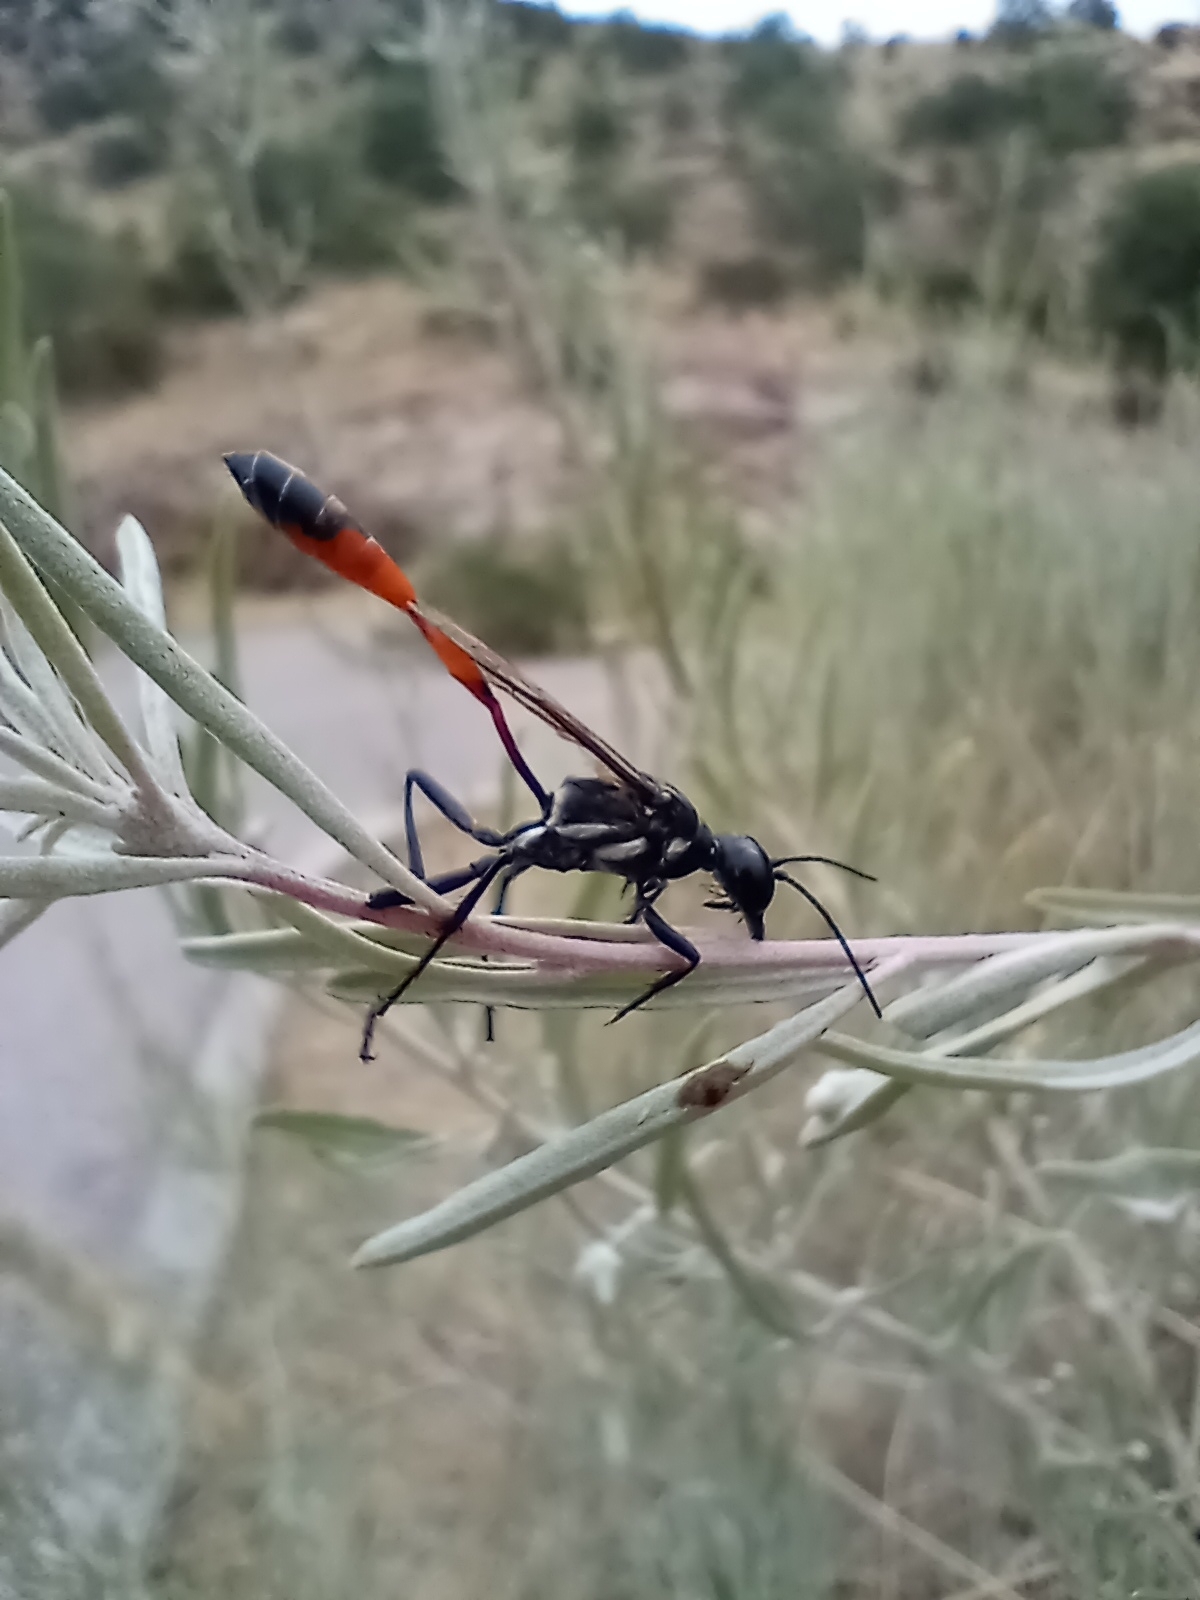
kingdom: Animalia
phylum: Arthropoda
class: Insecta
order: Hymenoptera
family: Sphecidae
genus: Ammophila
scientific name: Ammophila procera
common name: Common thread-waisted wasp
